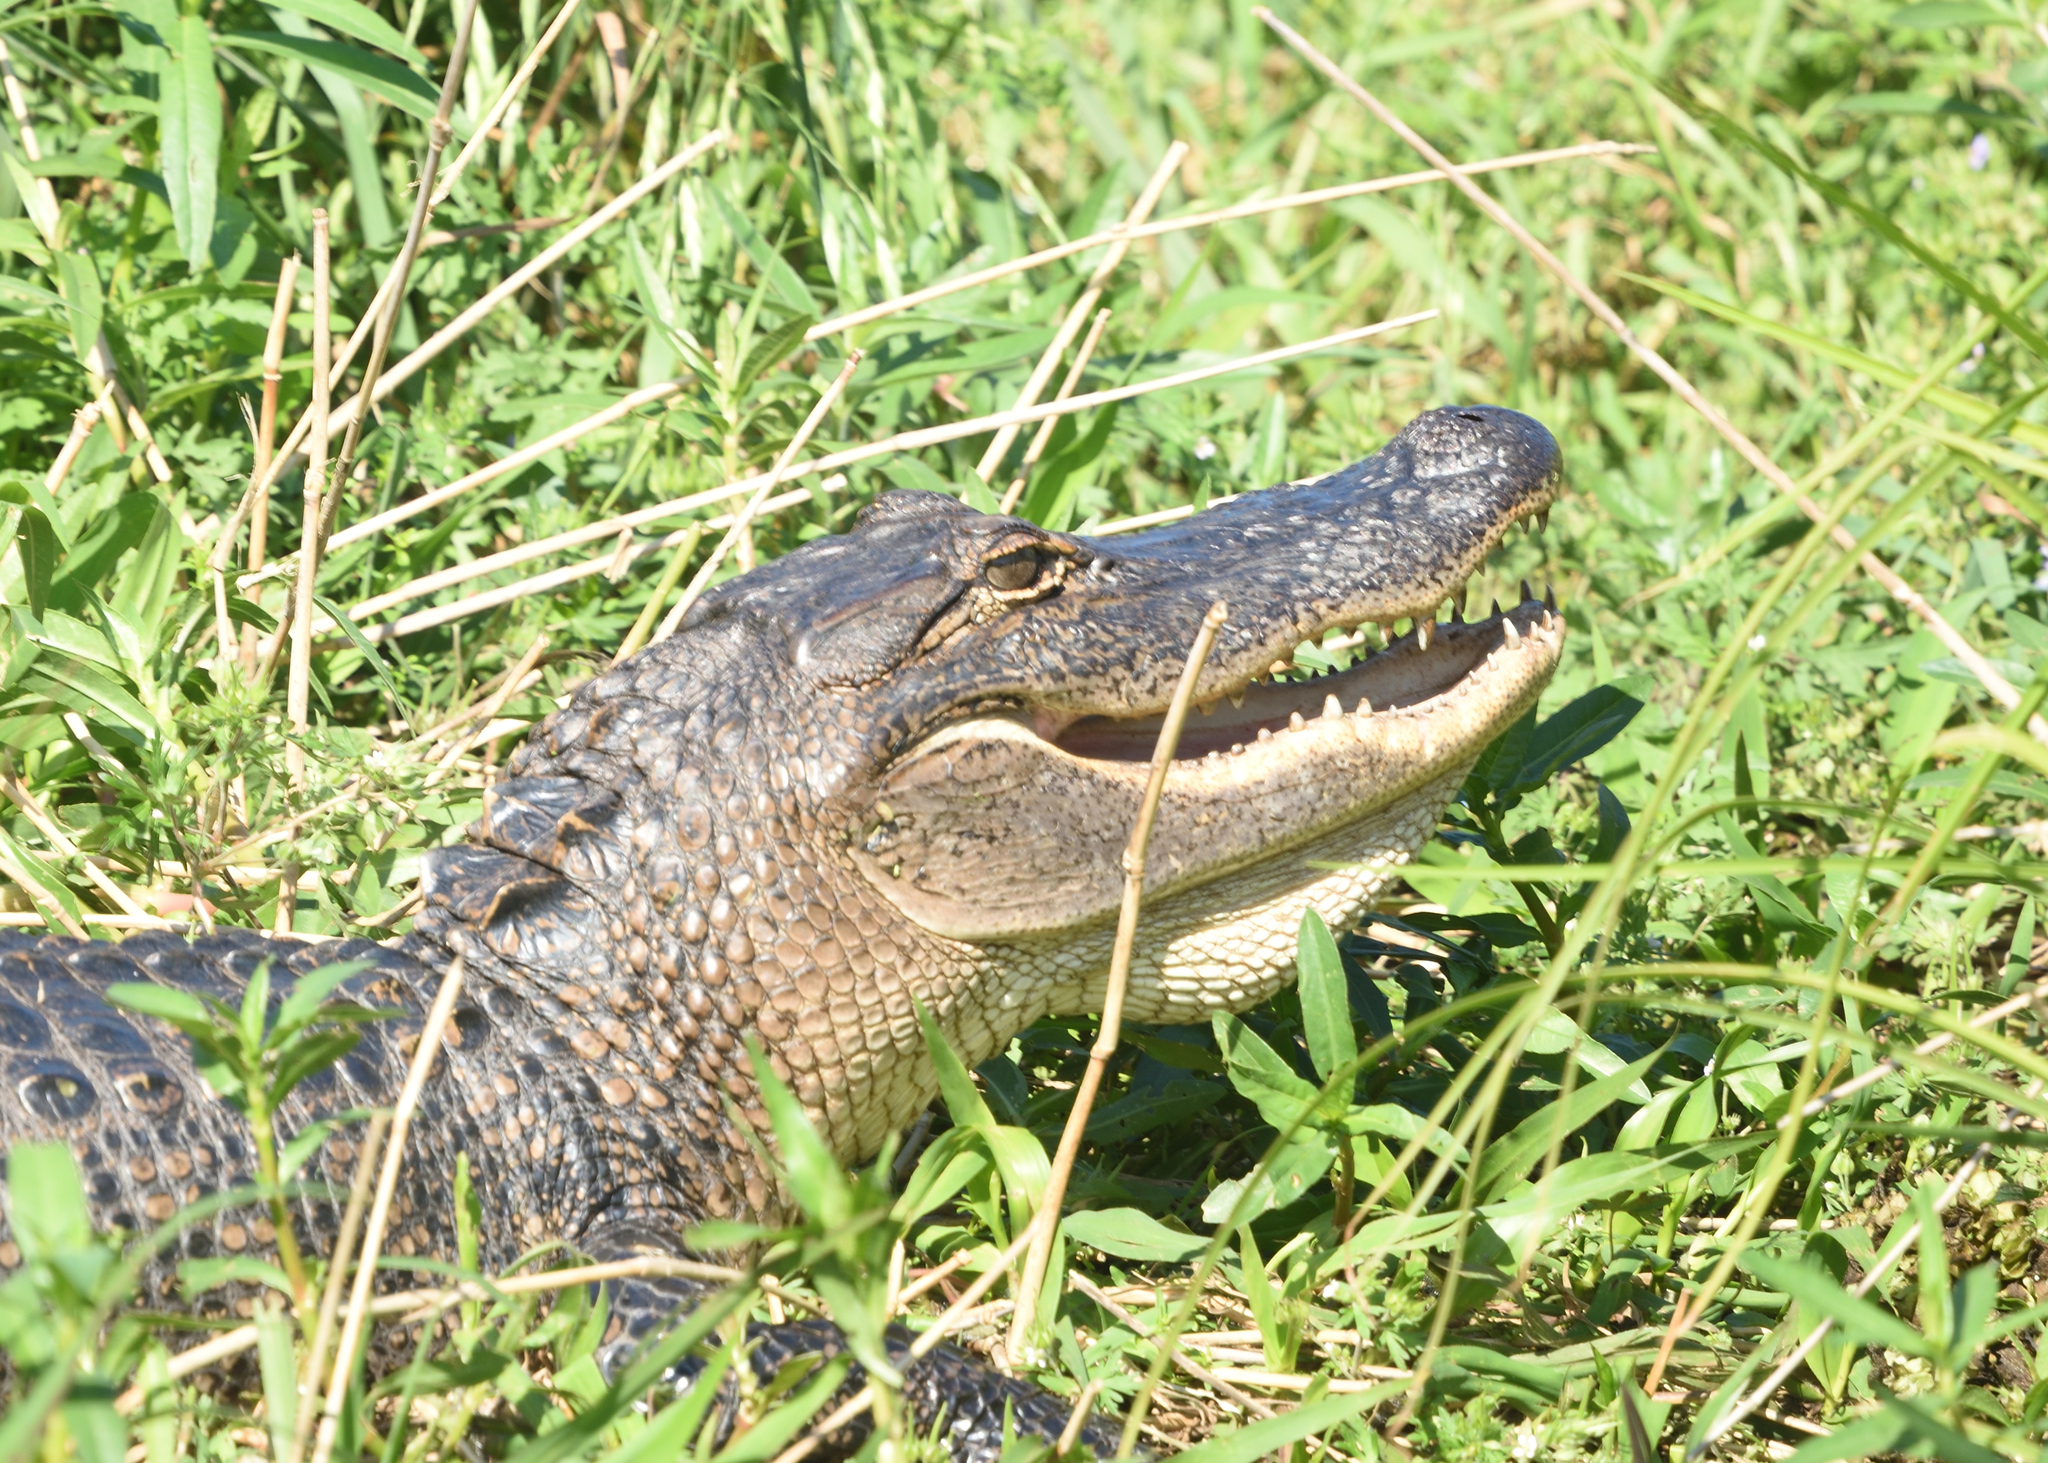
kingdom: Animalia
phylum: Chordata
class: Crocodylia
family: Alligatoridae
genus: Alligator
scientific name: Alligator mississippiensis
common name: American alligator
